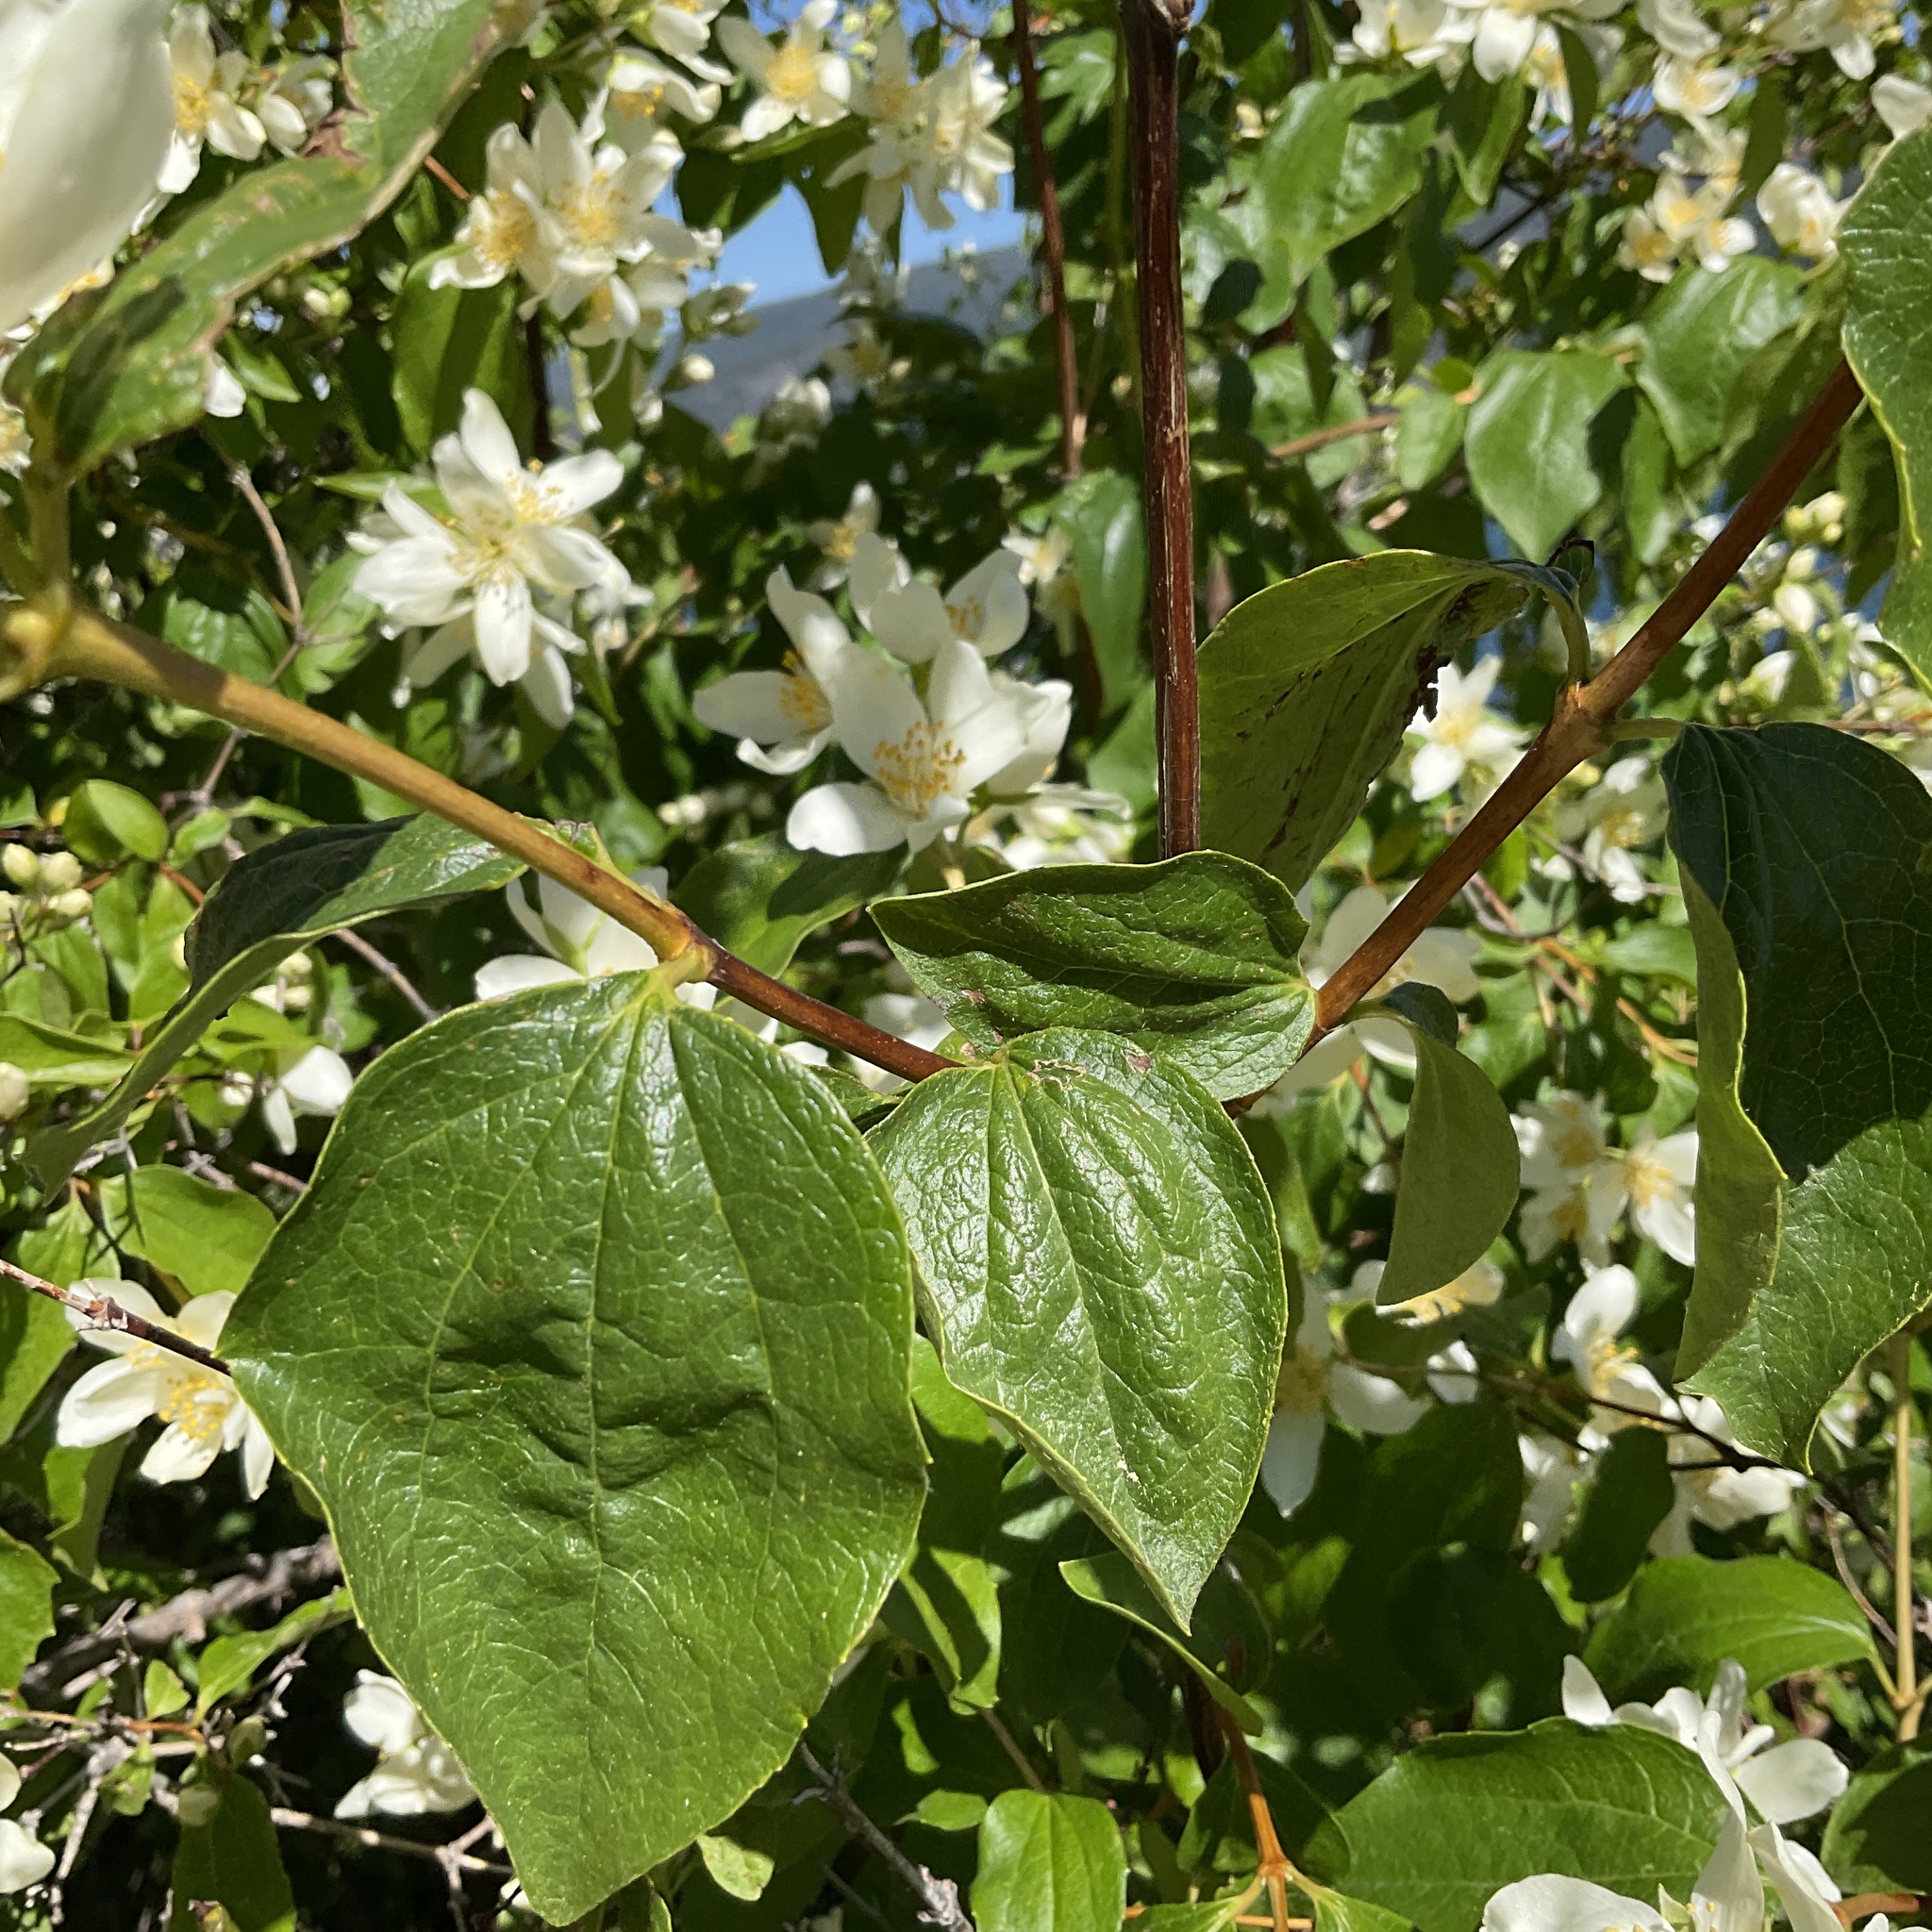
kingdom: Plantae
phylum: Tracheophyta
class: Magnoliopsida
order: Cornales
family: Hydrangeaceae
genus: Philadelphus
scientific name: Philadelphus lewisii
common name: Lewis's mock orange
